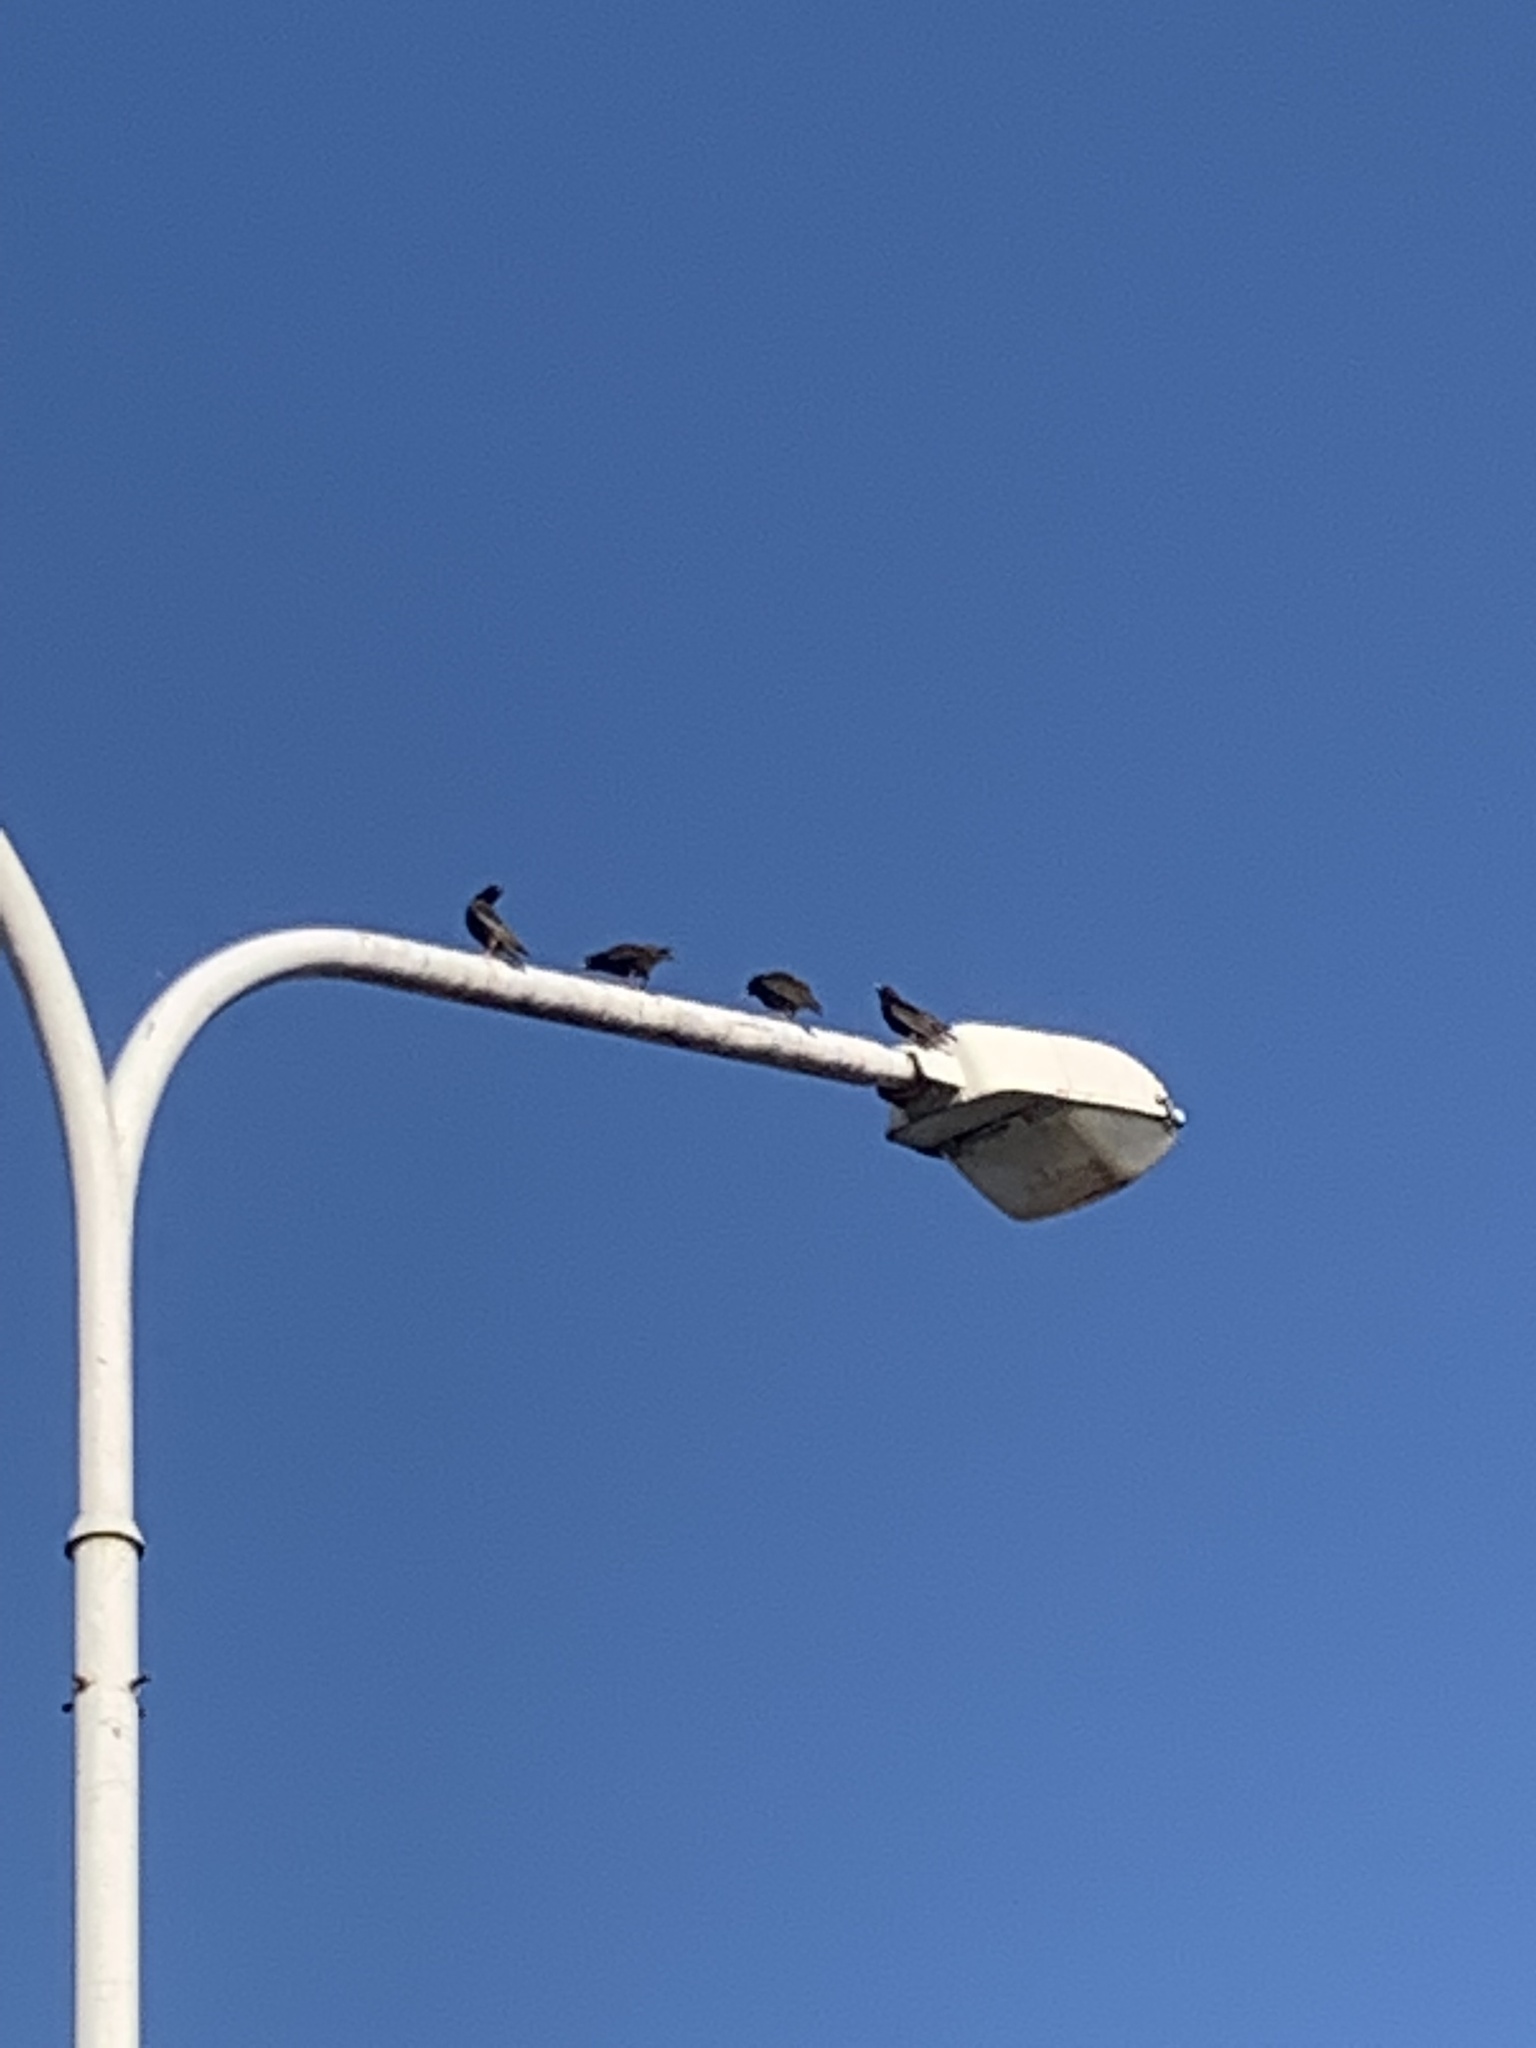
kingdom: Animalia
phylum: Chordata
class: Aves
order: Passeriformes
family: Sturnidae
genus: Sturnus
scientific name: Sturnus vulgaris
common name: Common starling
